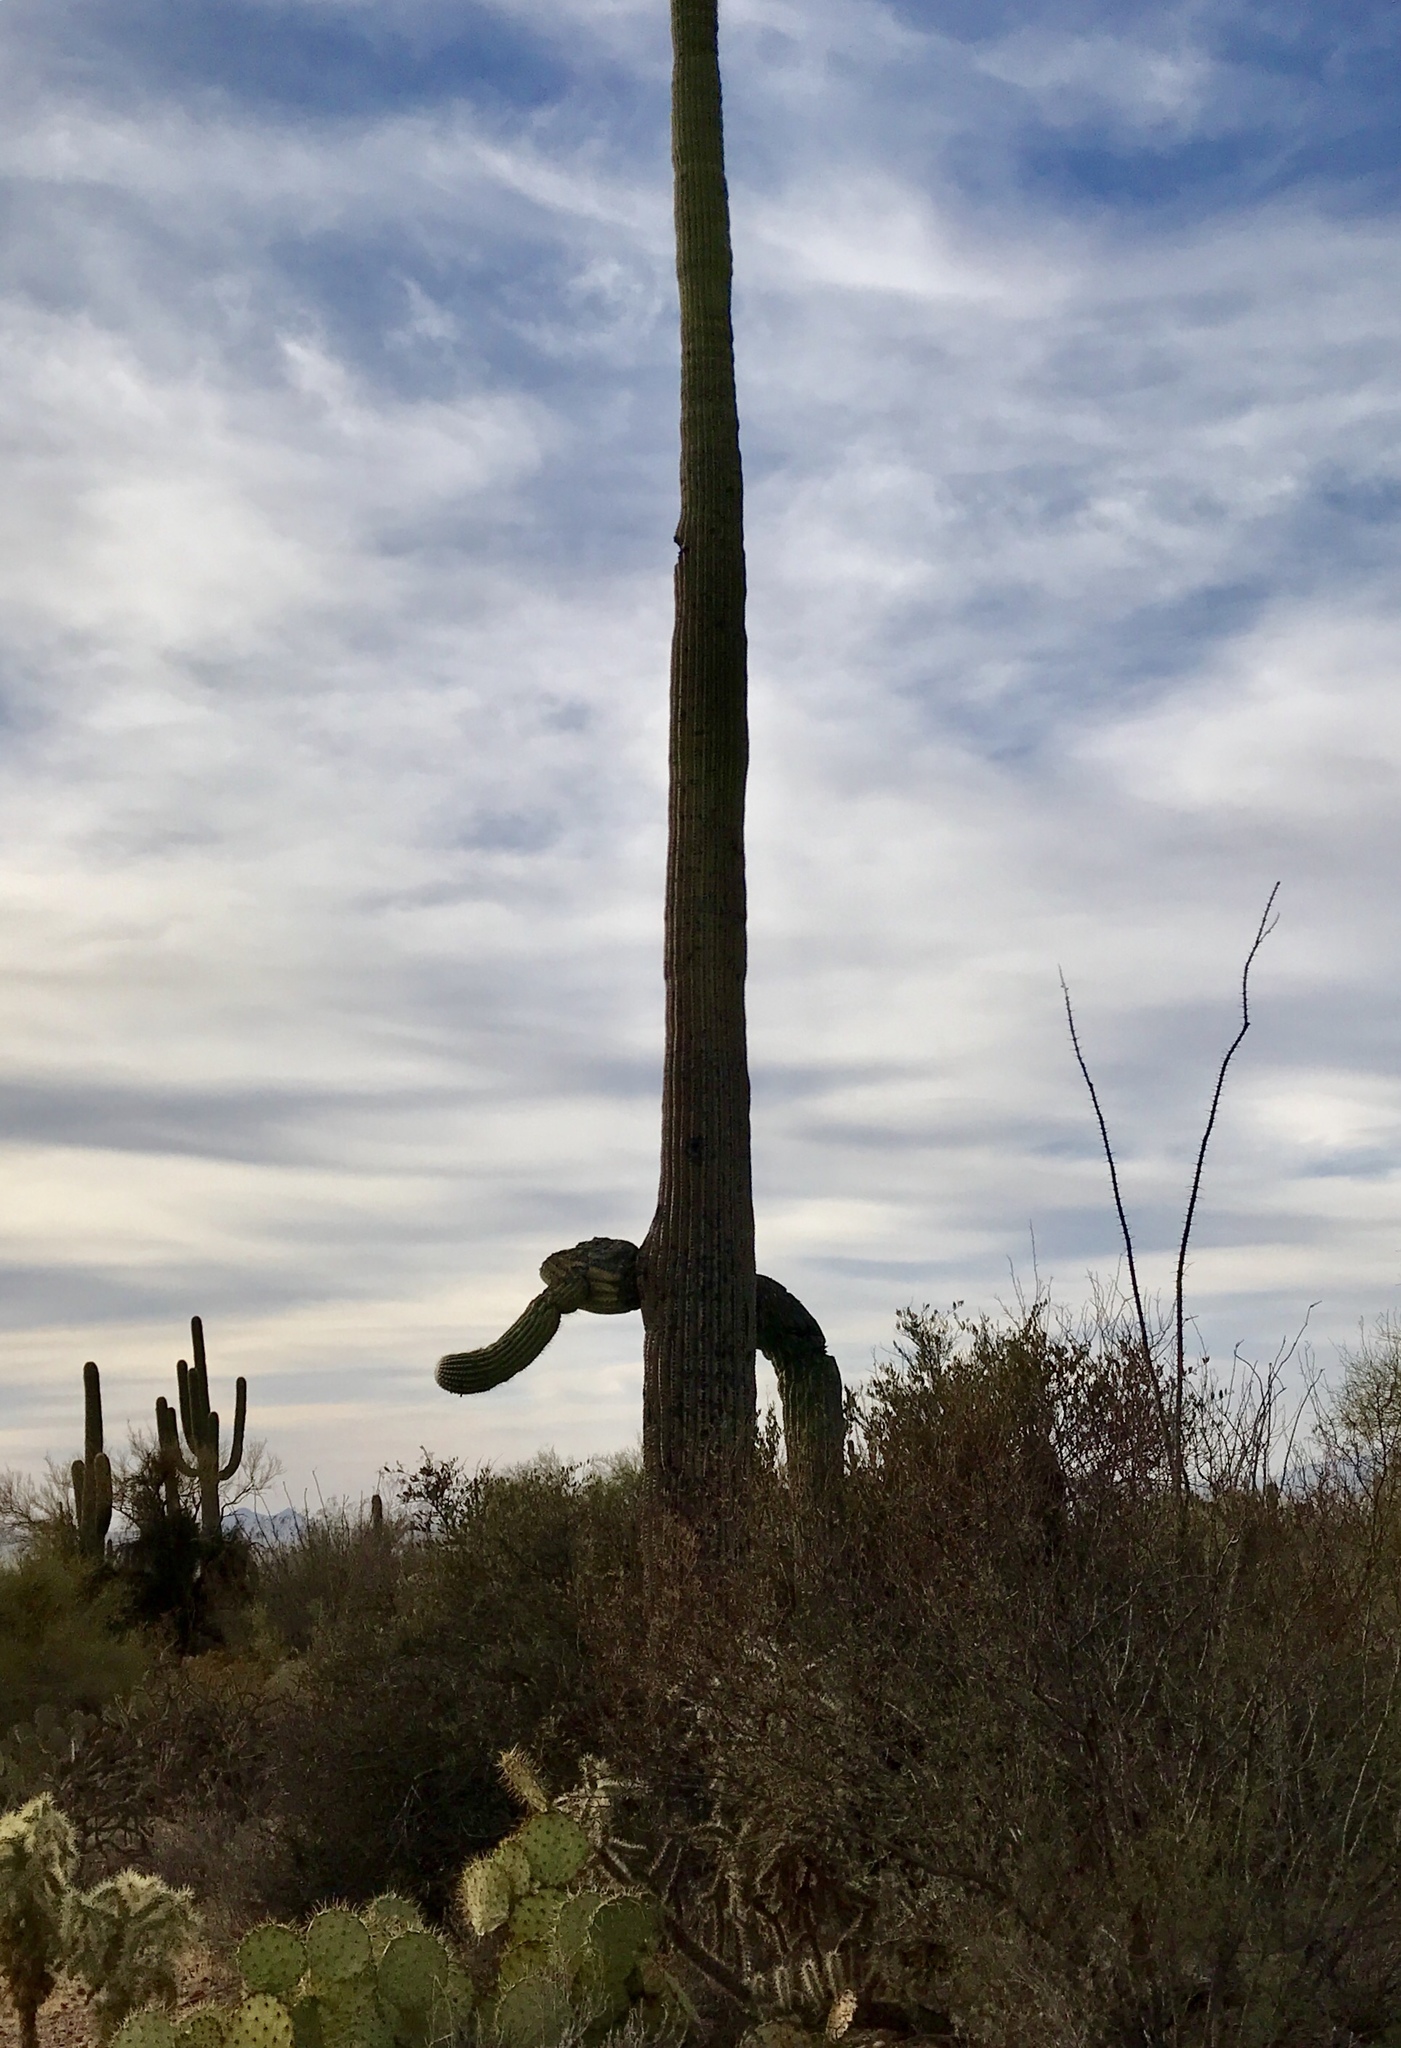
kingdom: Plantae
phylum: Tracheophyta
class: Magnoliopsida
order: Caryophyllales
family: Cactaceae
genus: Carnegiea
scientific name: Carnegiea gigantea
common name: Saguaro
